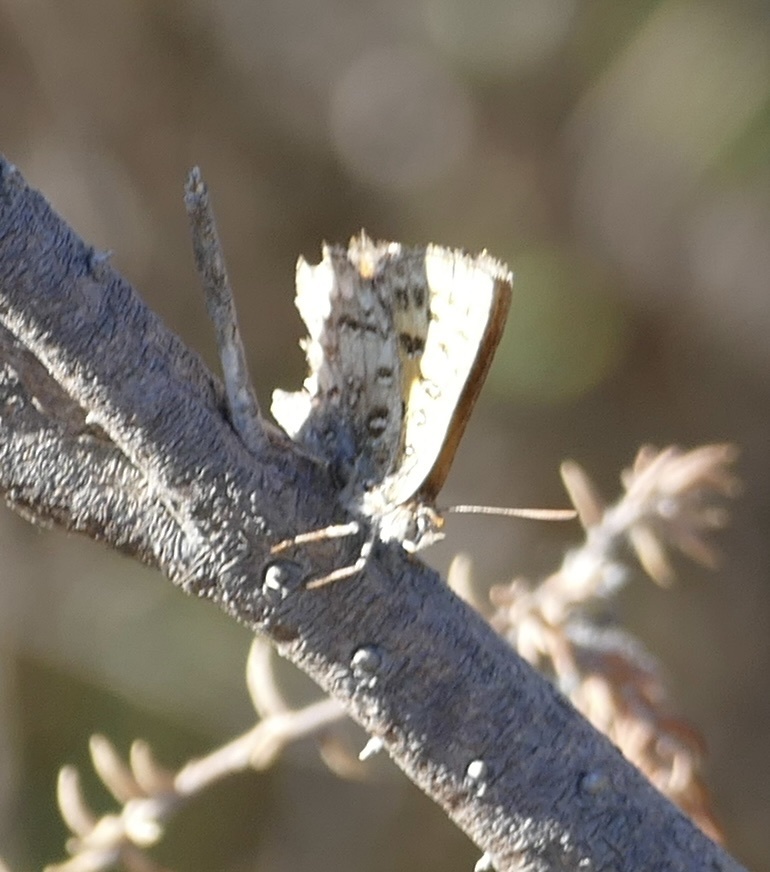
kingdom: Animalia
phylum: Arthropoda
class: Insecta
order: Lepidoptera
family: Lycaenidae
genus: Aloeides
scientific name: Aloeides pierus
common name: Dull copper
